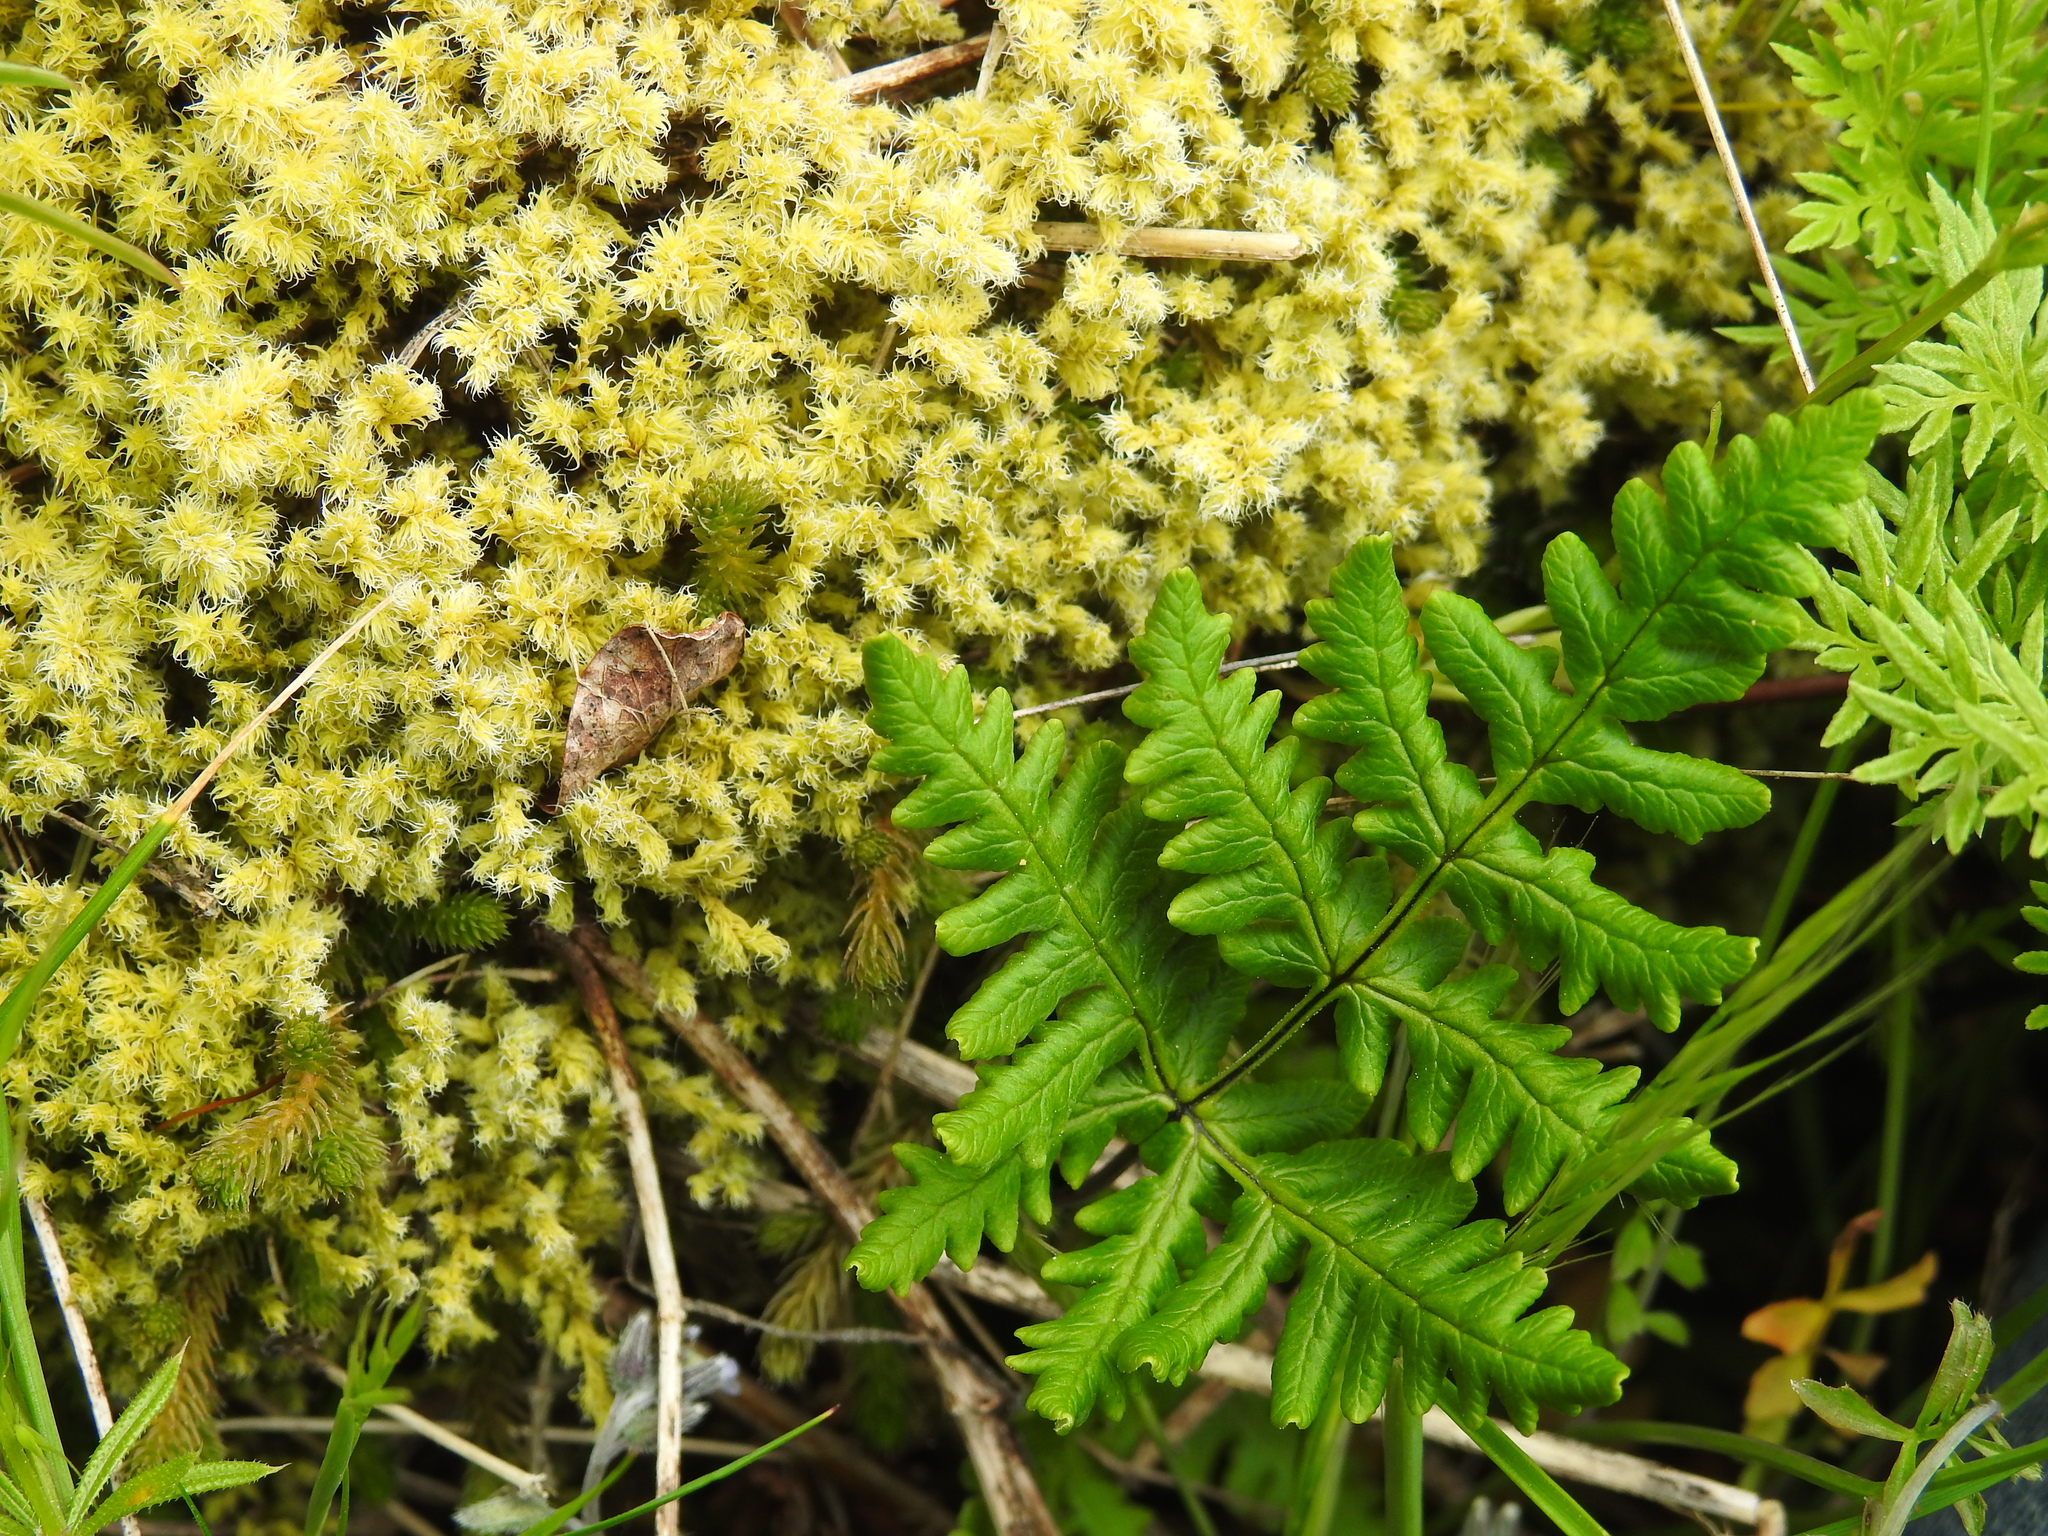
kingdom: Plantae
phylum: Tracheophyta
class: Polypodiopsida
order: Polypodiales
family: Pteridaceae
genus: Pentagramma
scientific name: Pentagramma triangularis
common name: Gold fern
